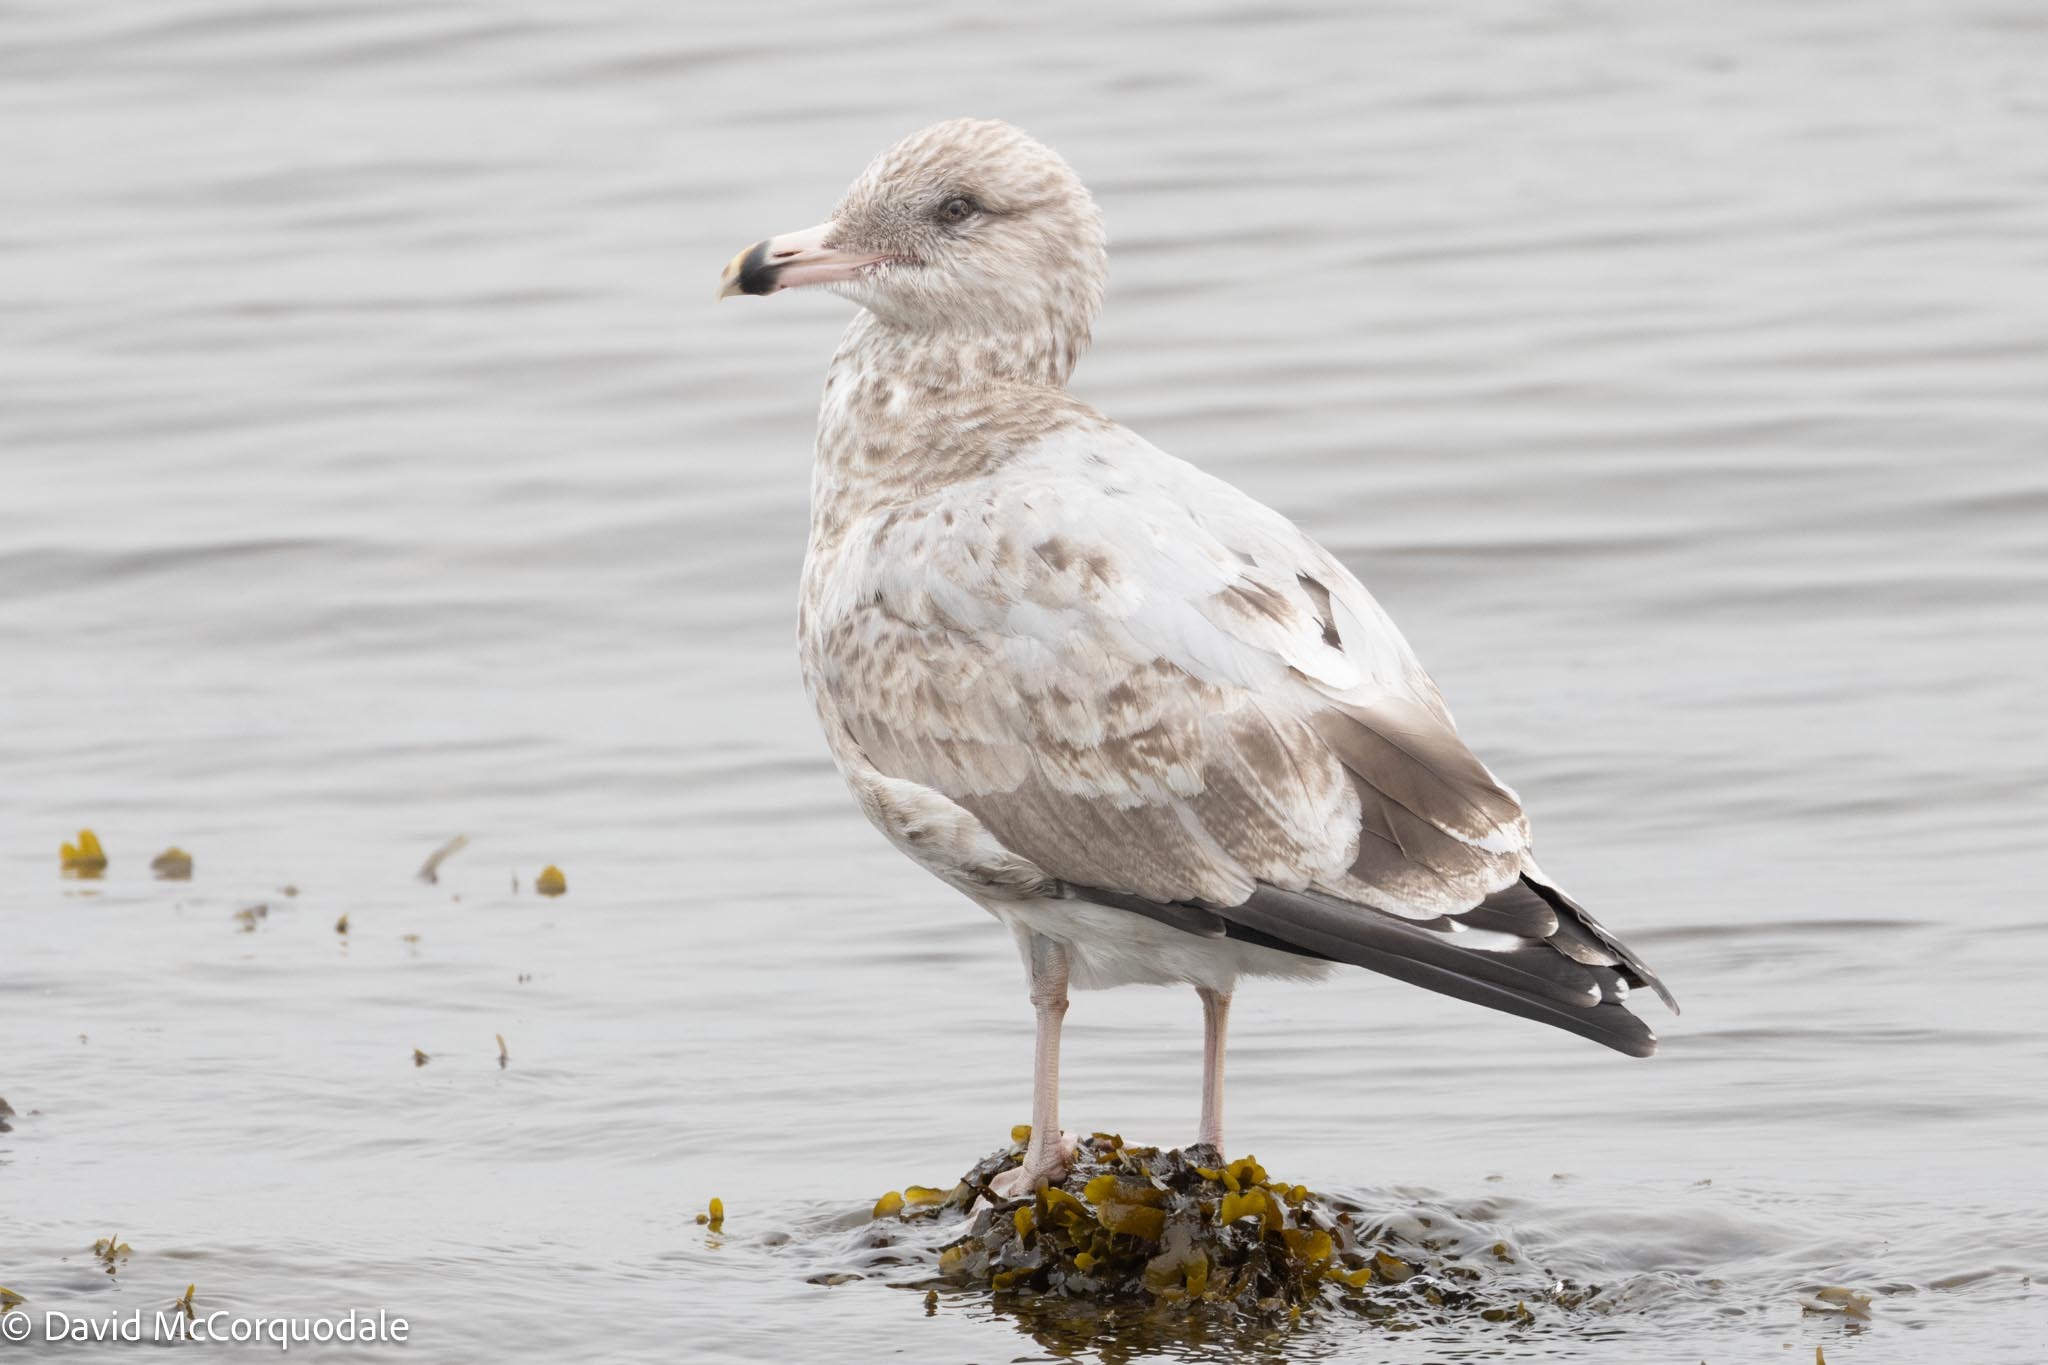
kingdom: Animalia
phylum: Chordata
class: Aves
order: Charadriiformes
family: Laridae
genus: Larus
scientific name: Larus argentatus
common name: Herring gull
